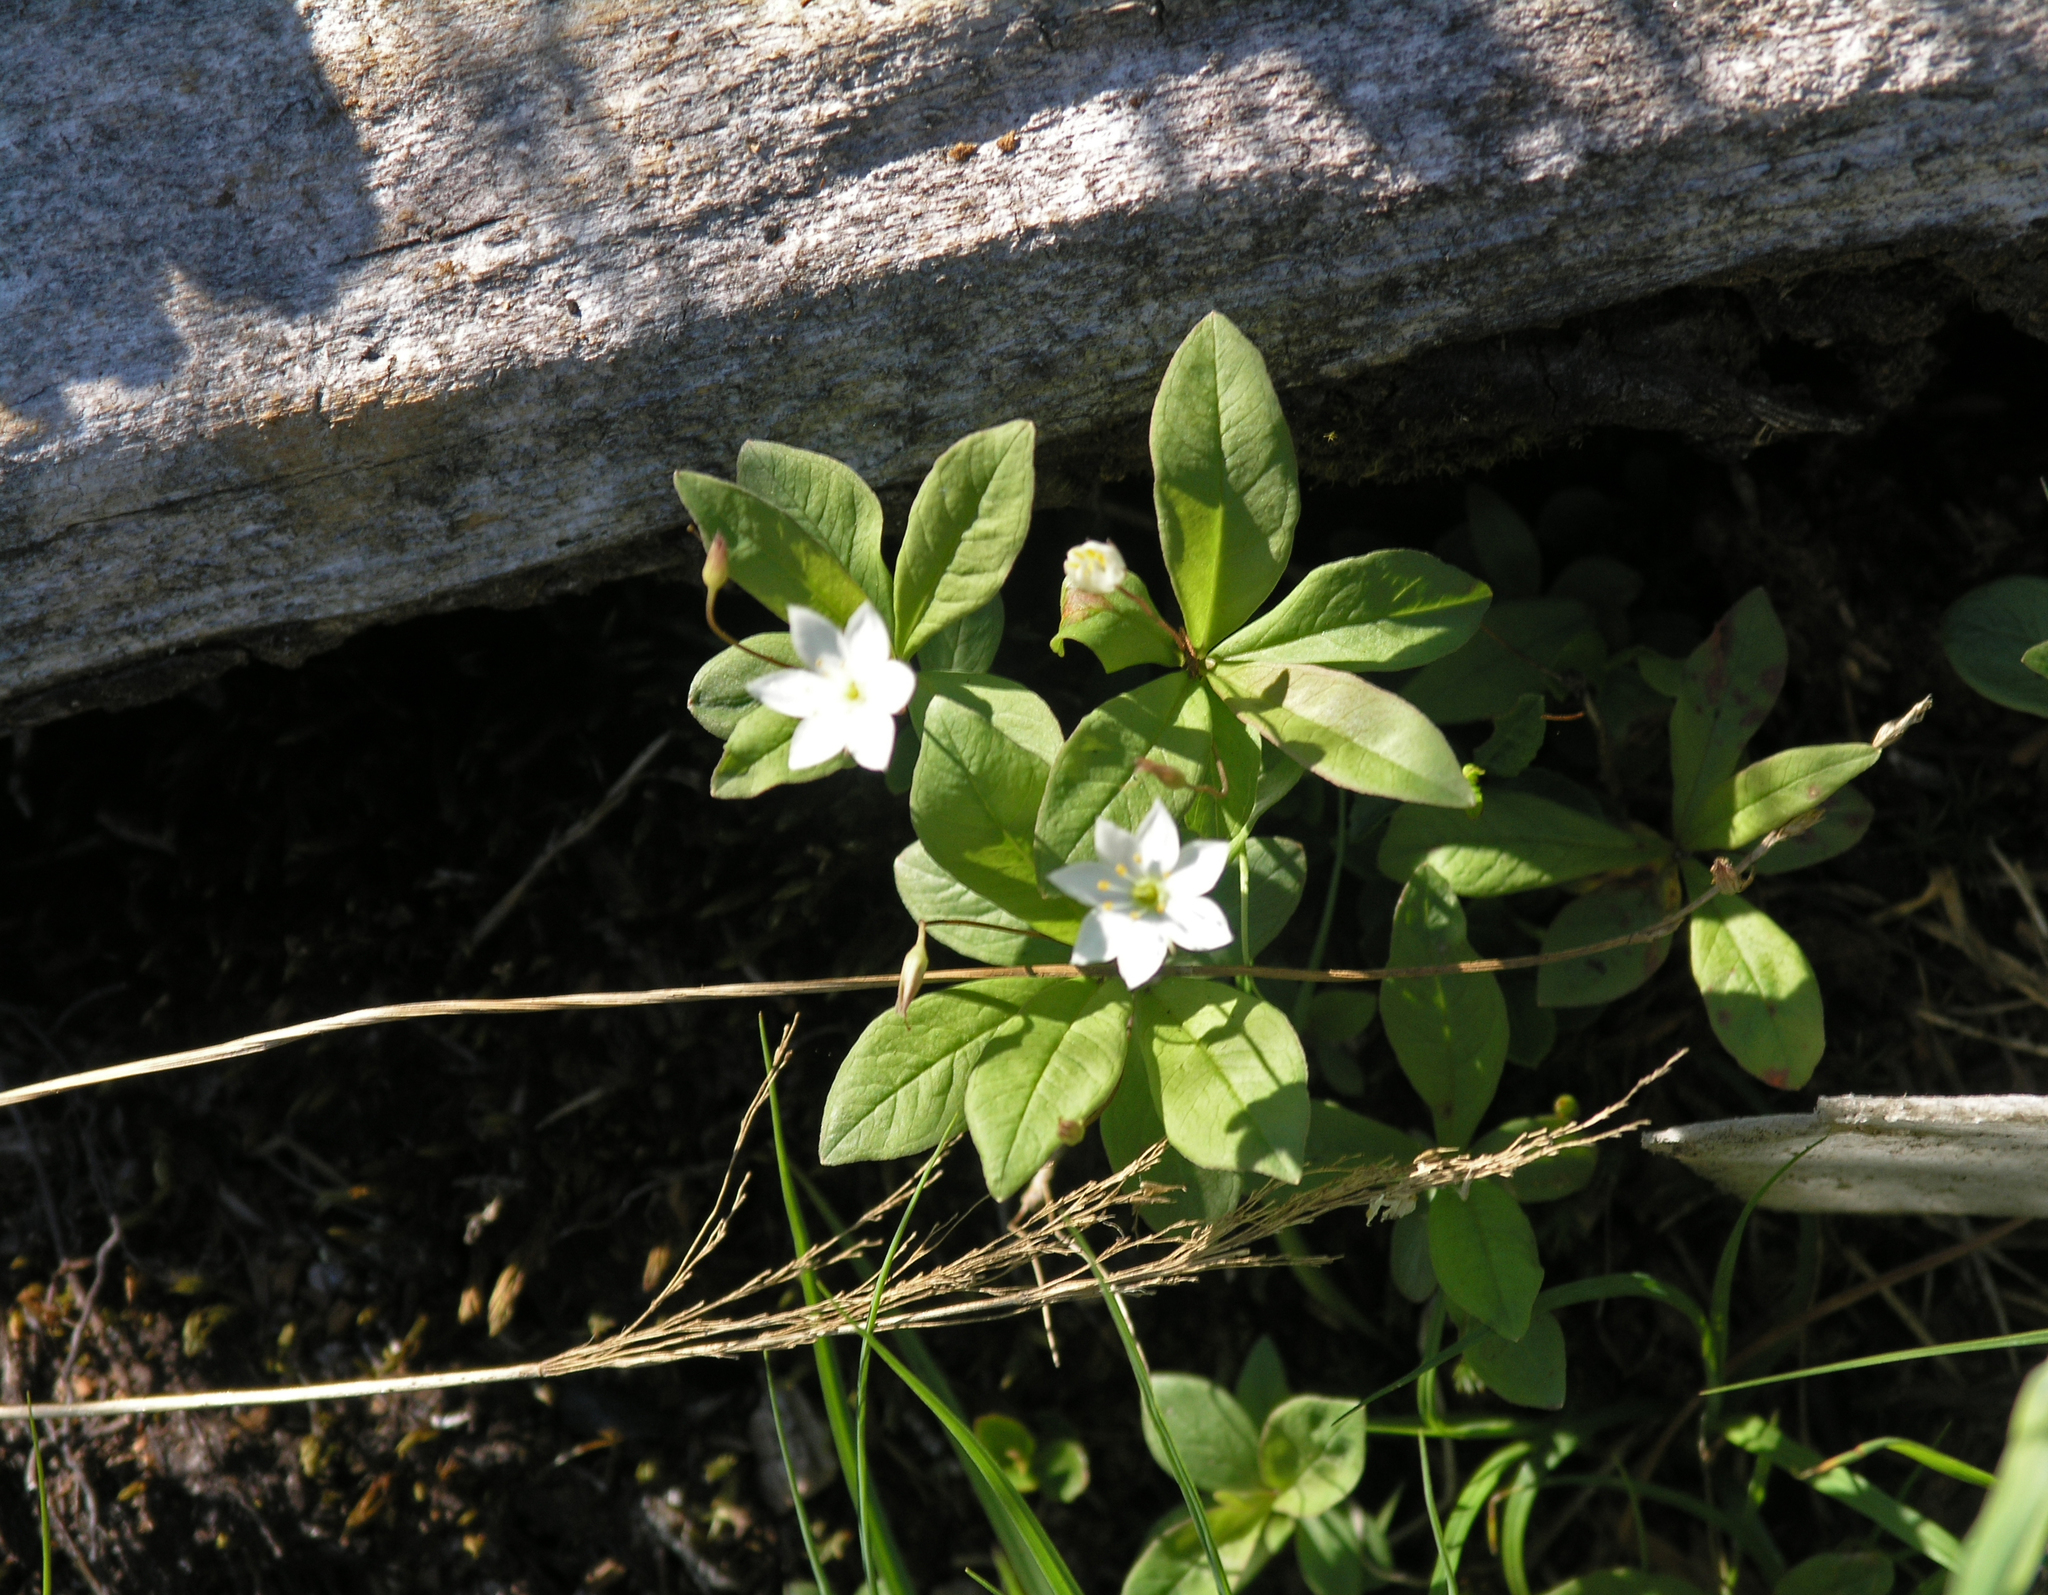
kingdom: Plantae
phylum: Tracheophyta
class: Magnoliopsida
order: Ericales
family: Primulaceae
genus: Lysimachia
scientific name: Lysimachia europaea
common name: Arctic starflower
